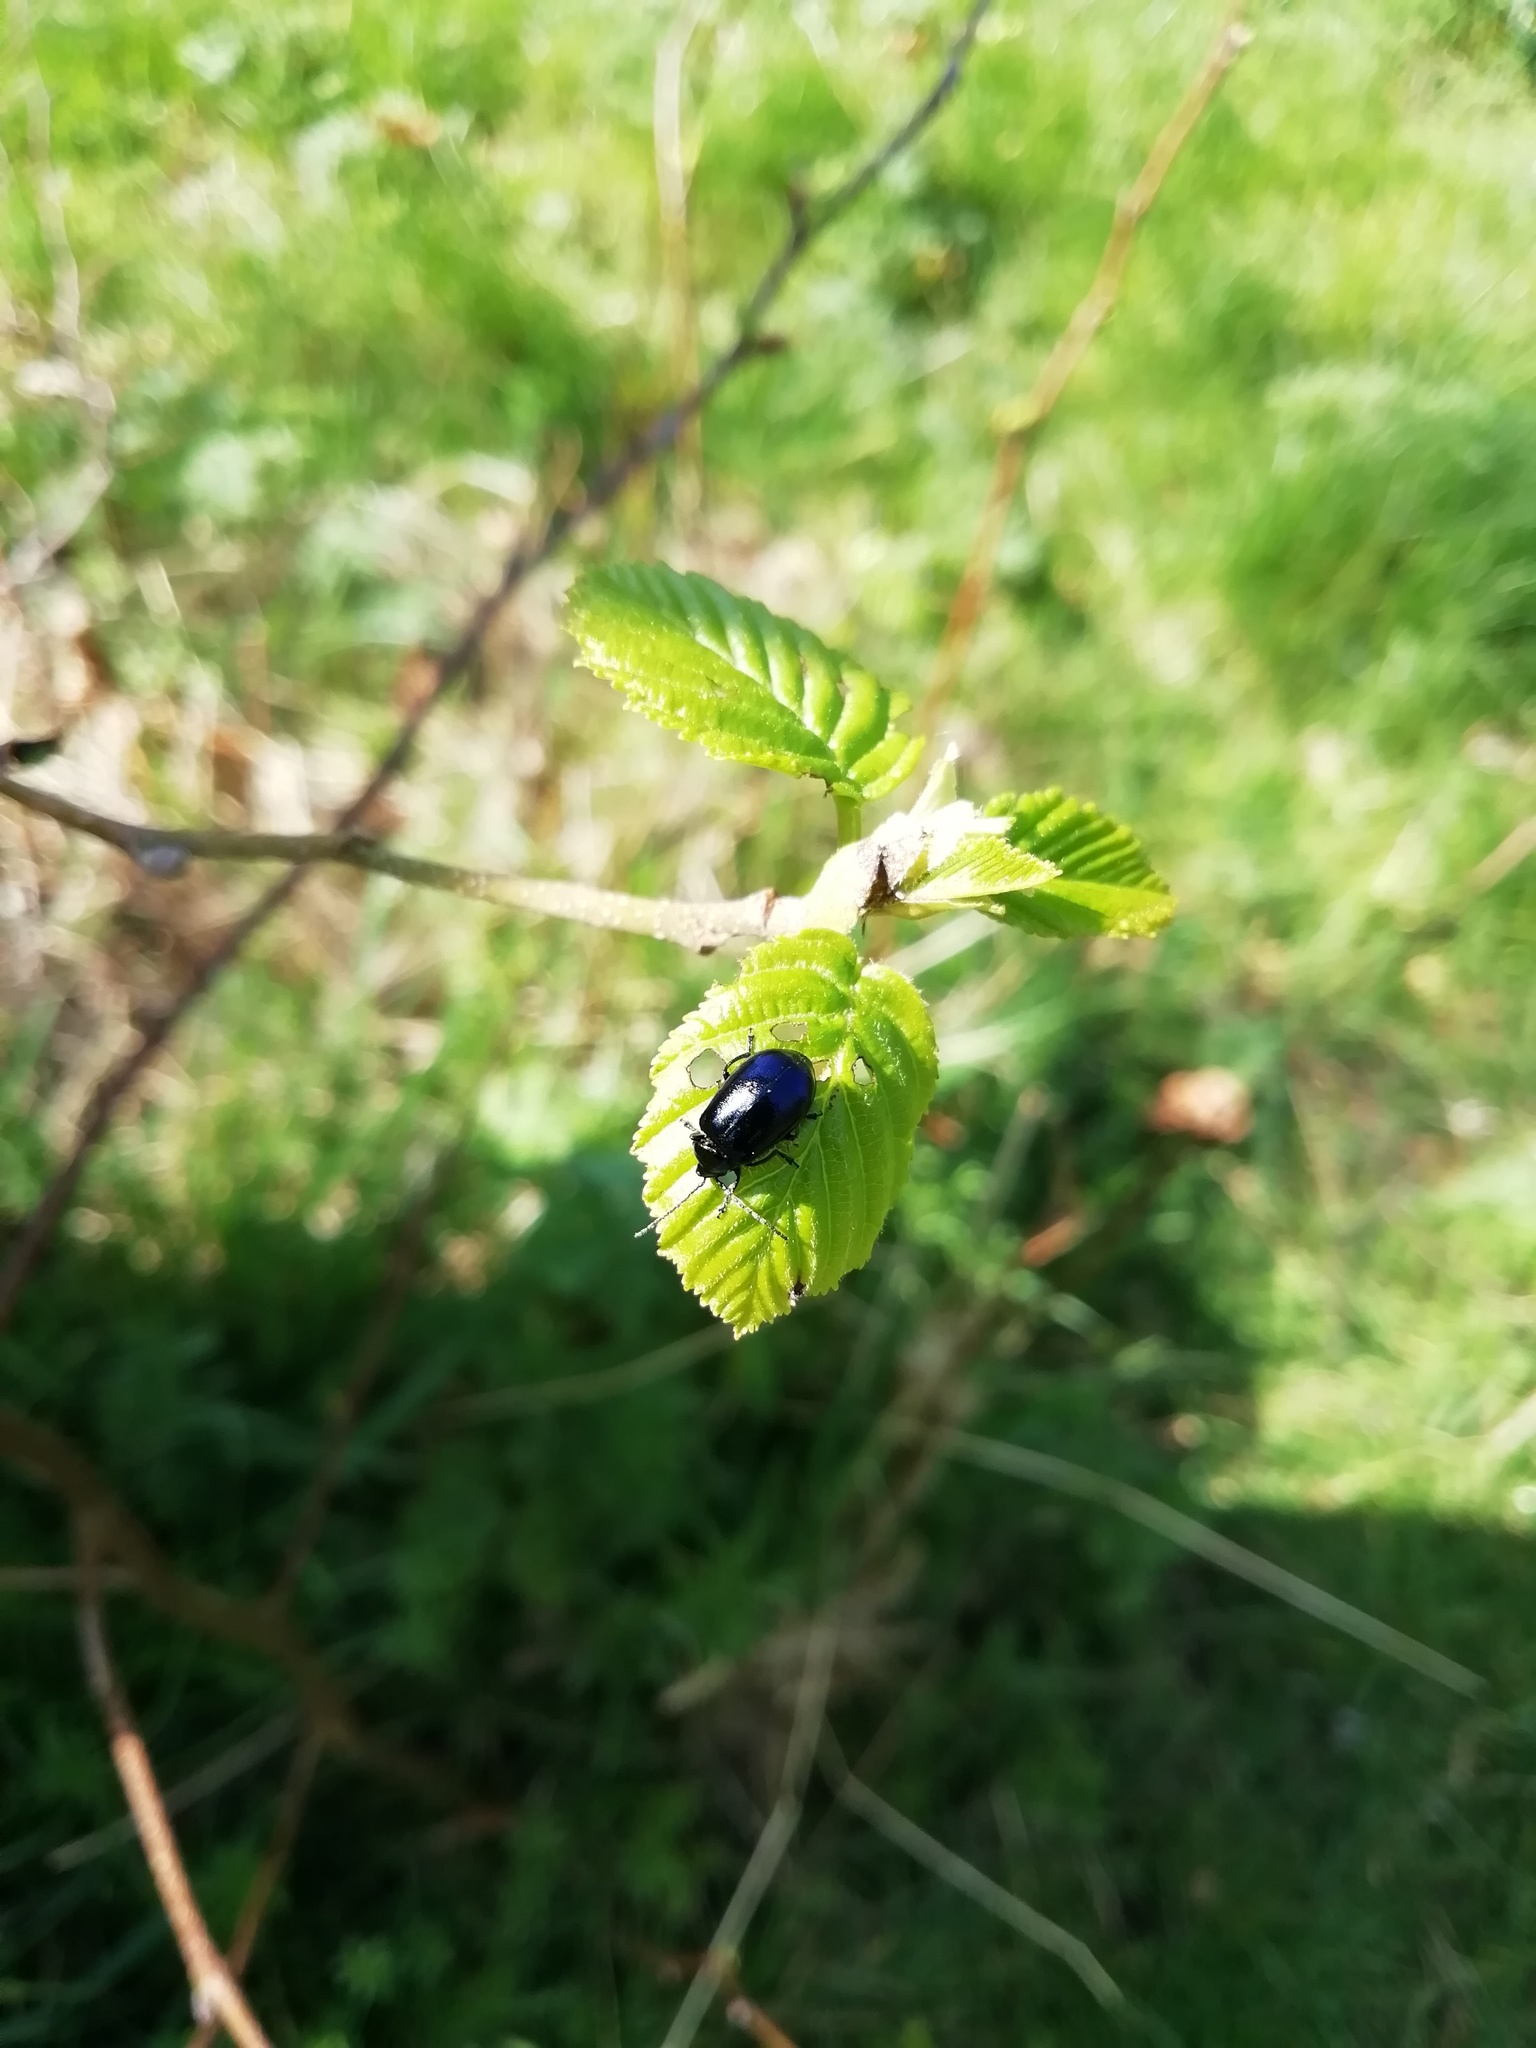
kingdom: Animalia
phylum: Arthropoda
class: Insecta
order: Coleoptera
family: Chrysomelidae
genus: Agelastica
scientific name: Agelastica alni
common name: Alder leaf beetle
